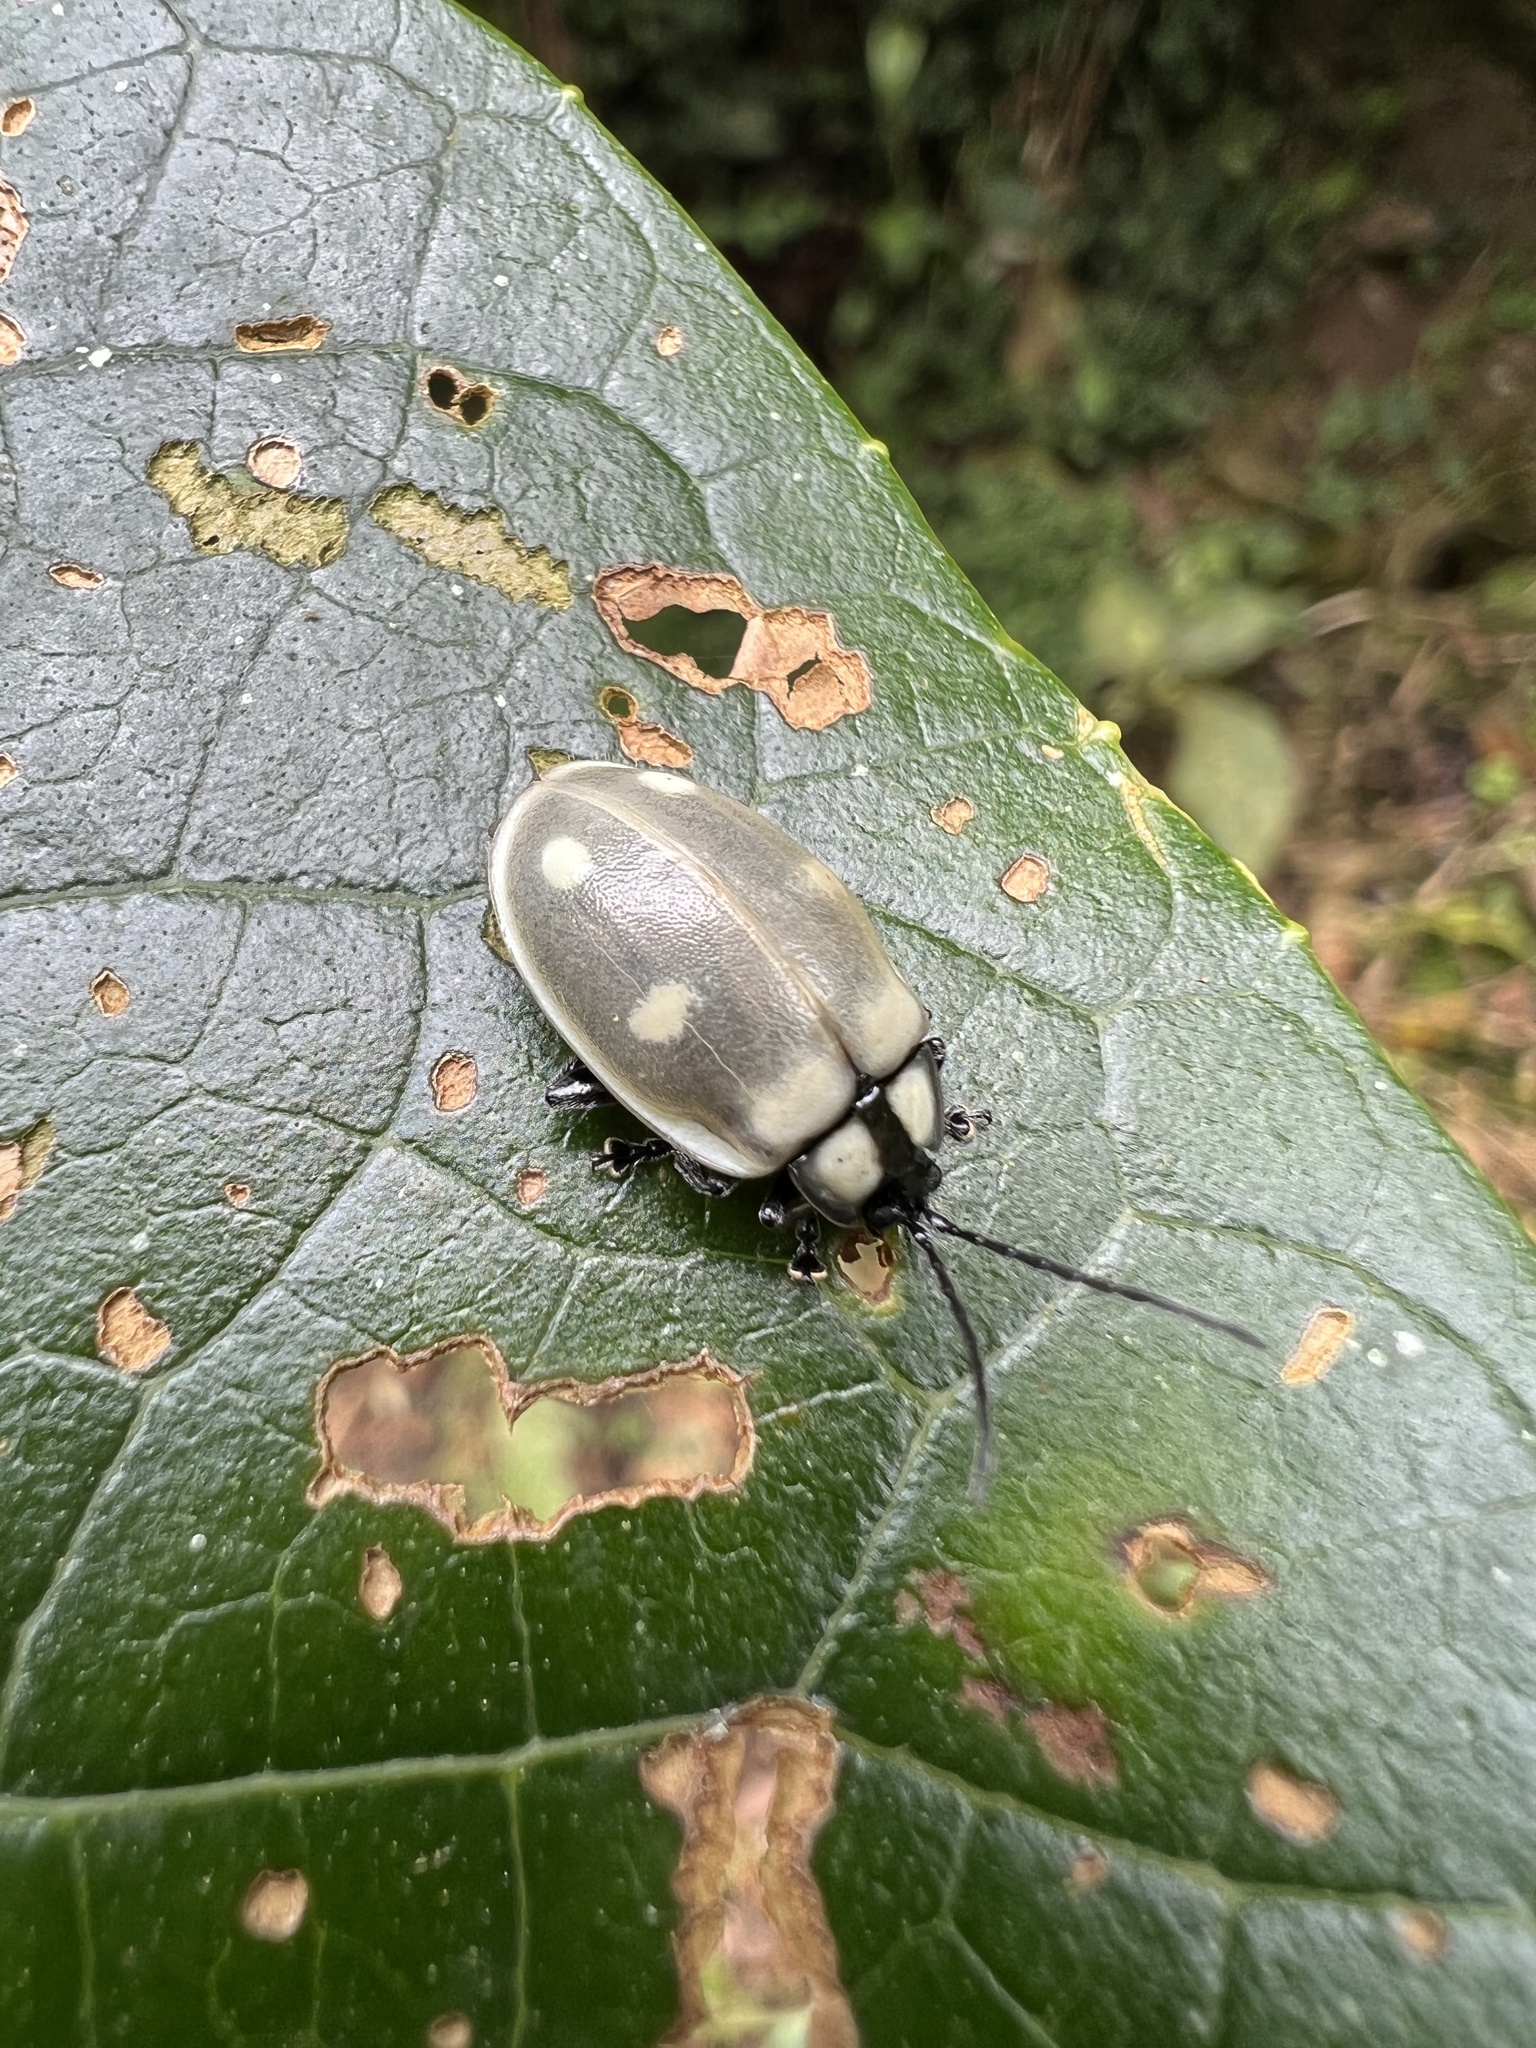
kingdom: Animalia
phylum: Arthropoda
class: Insecta
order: Coleoptera
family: Chrysomelidae
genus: Aspicela
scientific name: Aspicela
